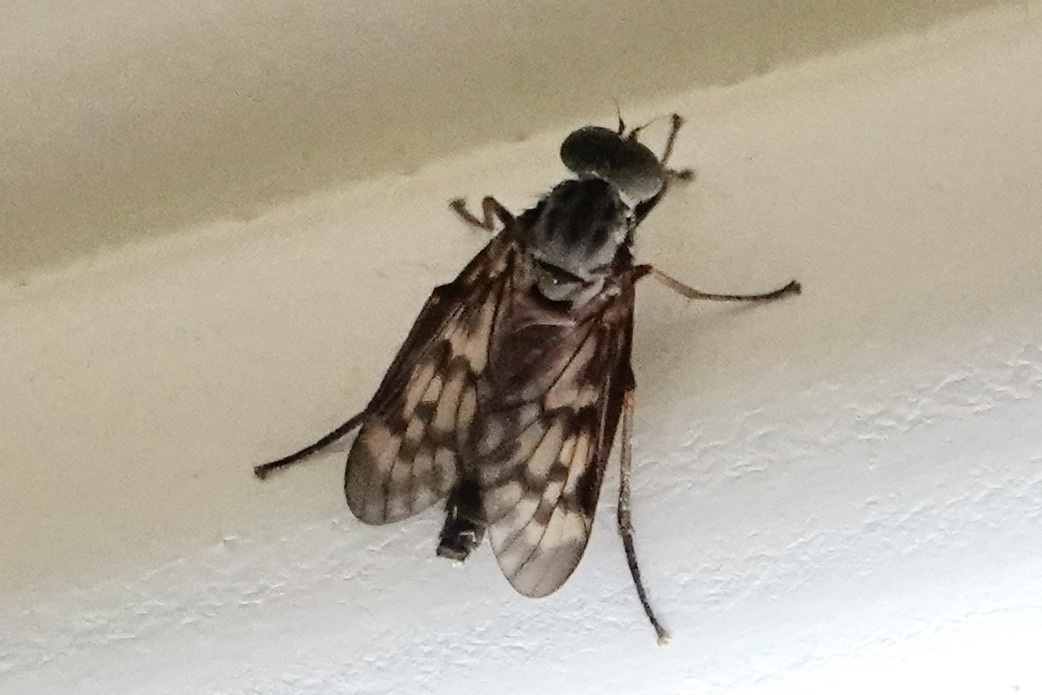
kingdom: Animalia
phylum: Arthropoda
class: Insecta
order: Diptera
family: Rhagionidae
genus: Rhagio
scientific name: Rhagio punctipennis
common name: Lesser variegated snipe fly
